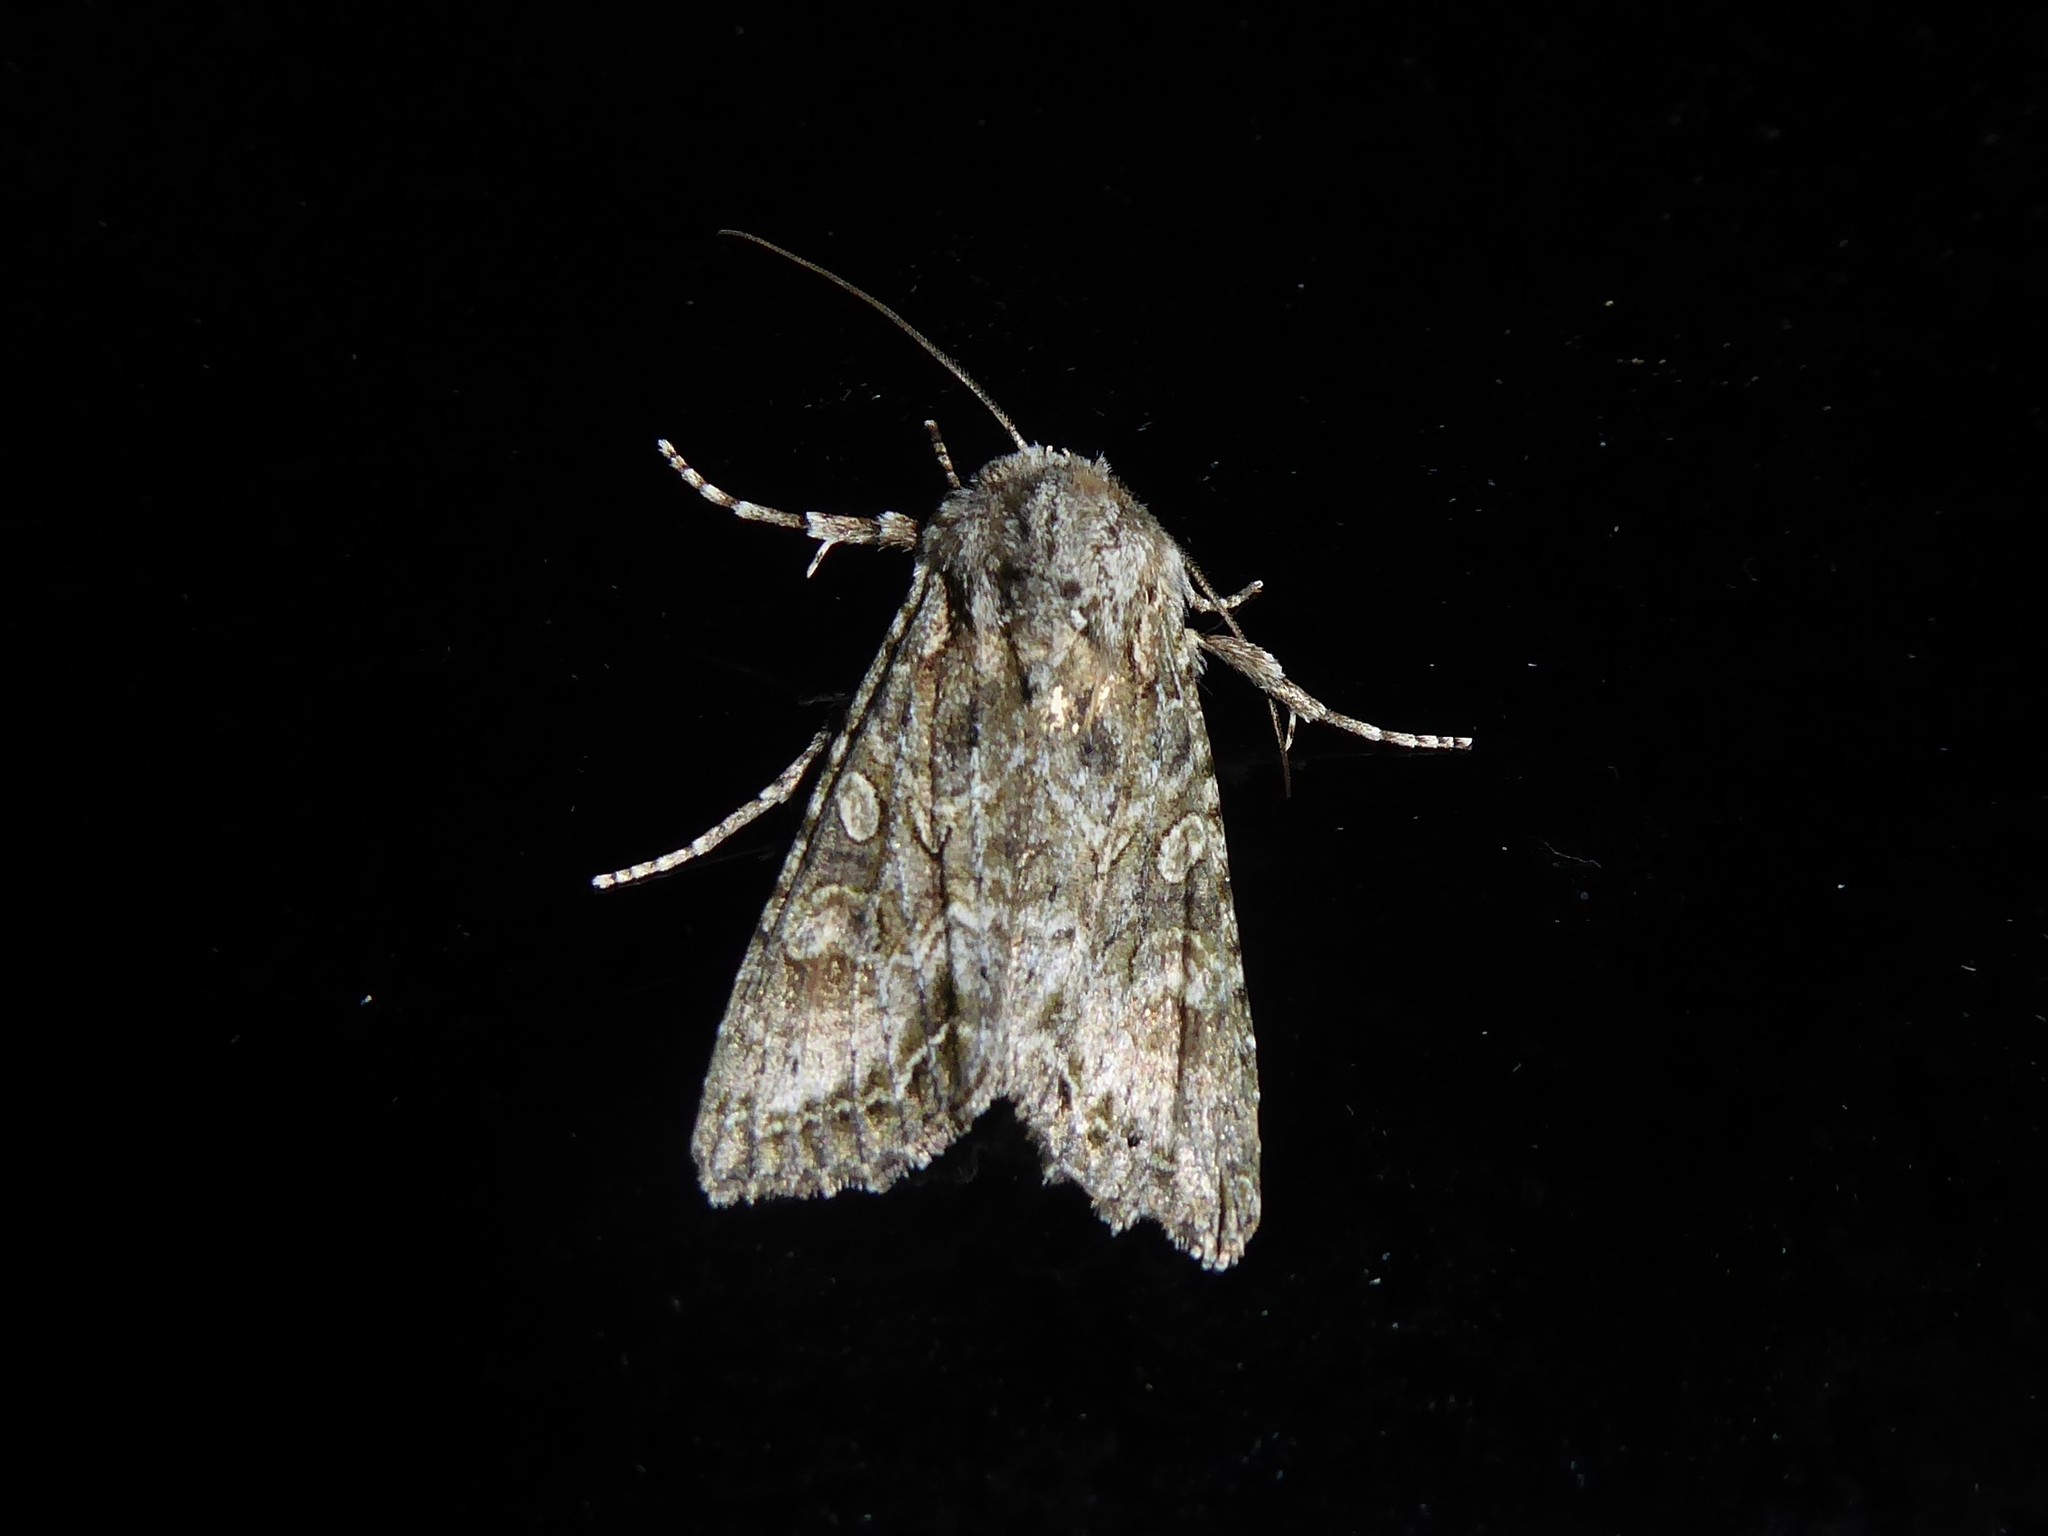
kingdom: Animalia
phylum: Arthropoda
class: Insecta
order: Lepidoptera
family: Noctuidae
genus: Ichneutica
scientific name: Ichneutica mutans
